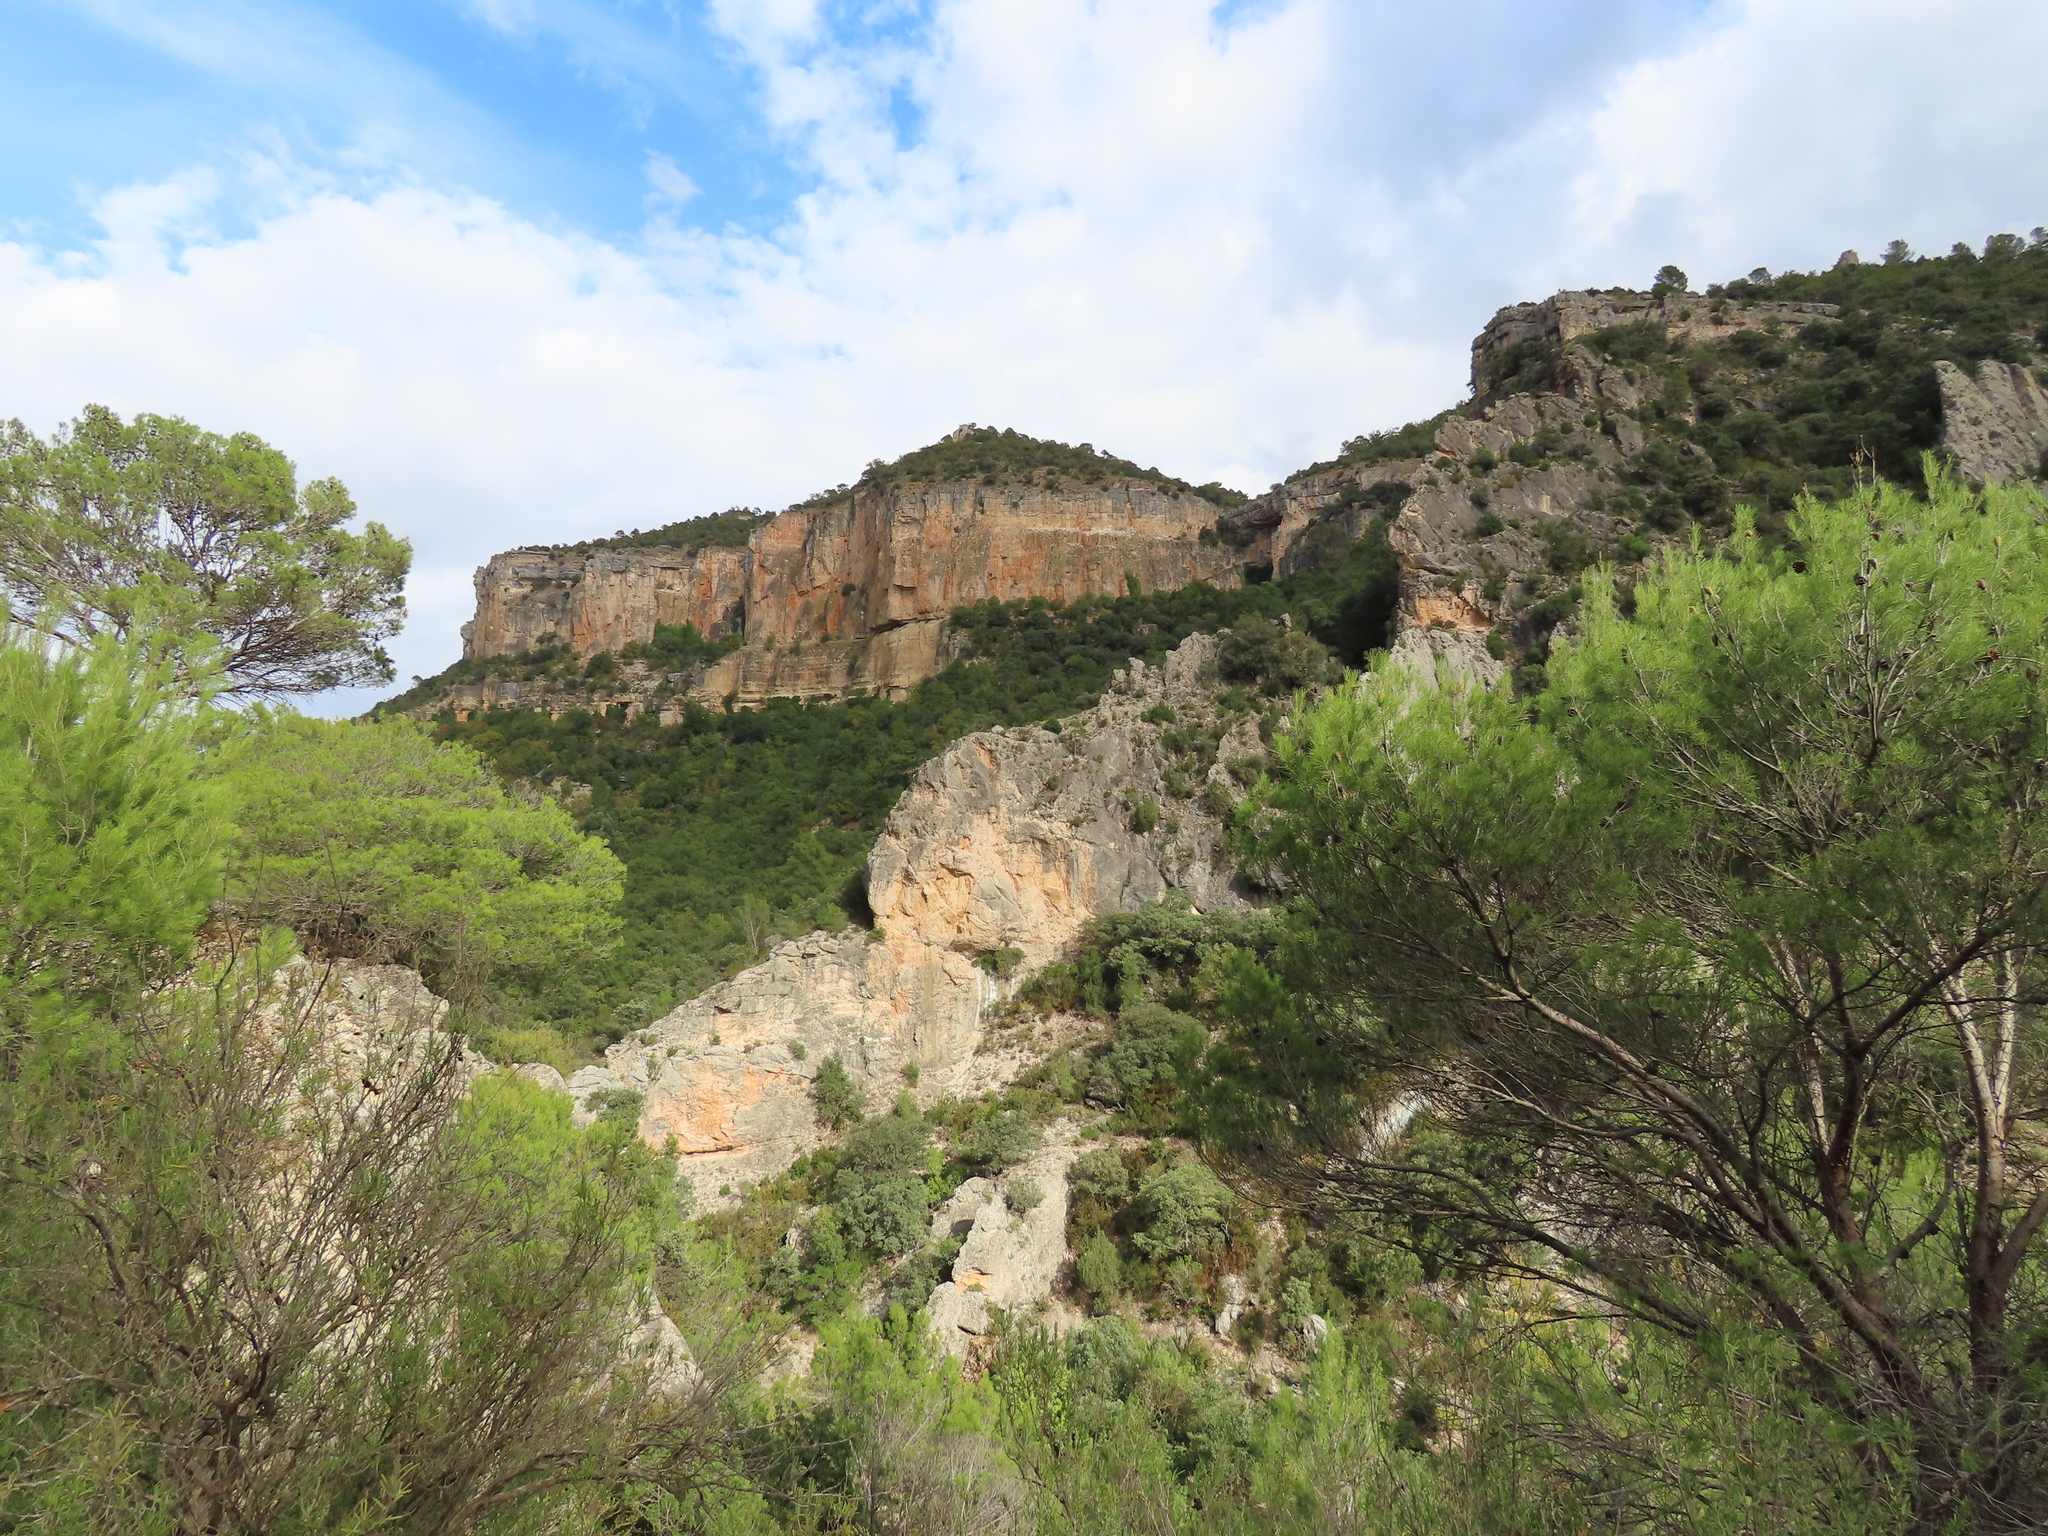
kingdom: Plantae
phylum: Tracheophyta
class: Pinopsida
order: Pinales
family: Pinaceae
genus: Pinus
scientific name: Pinus halepensis
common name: Aleppo pine
